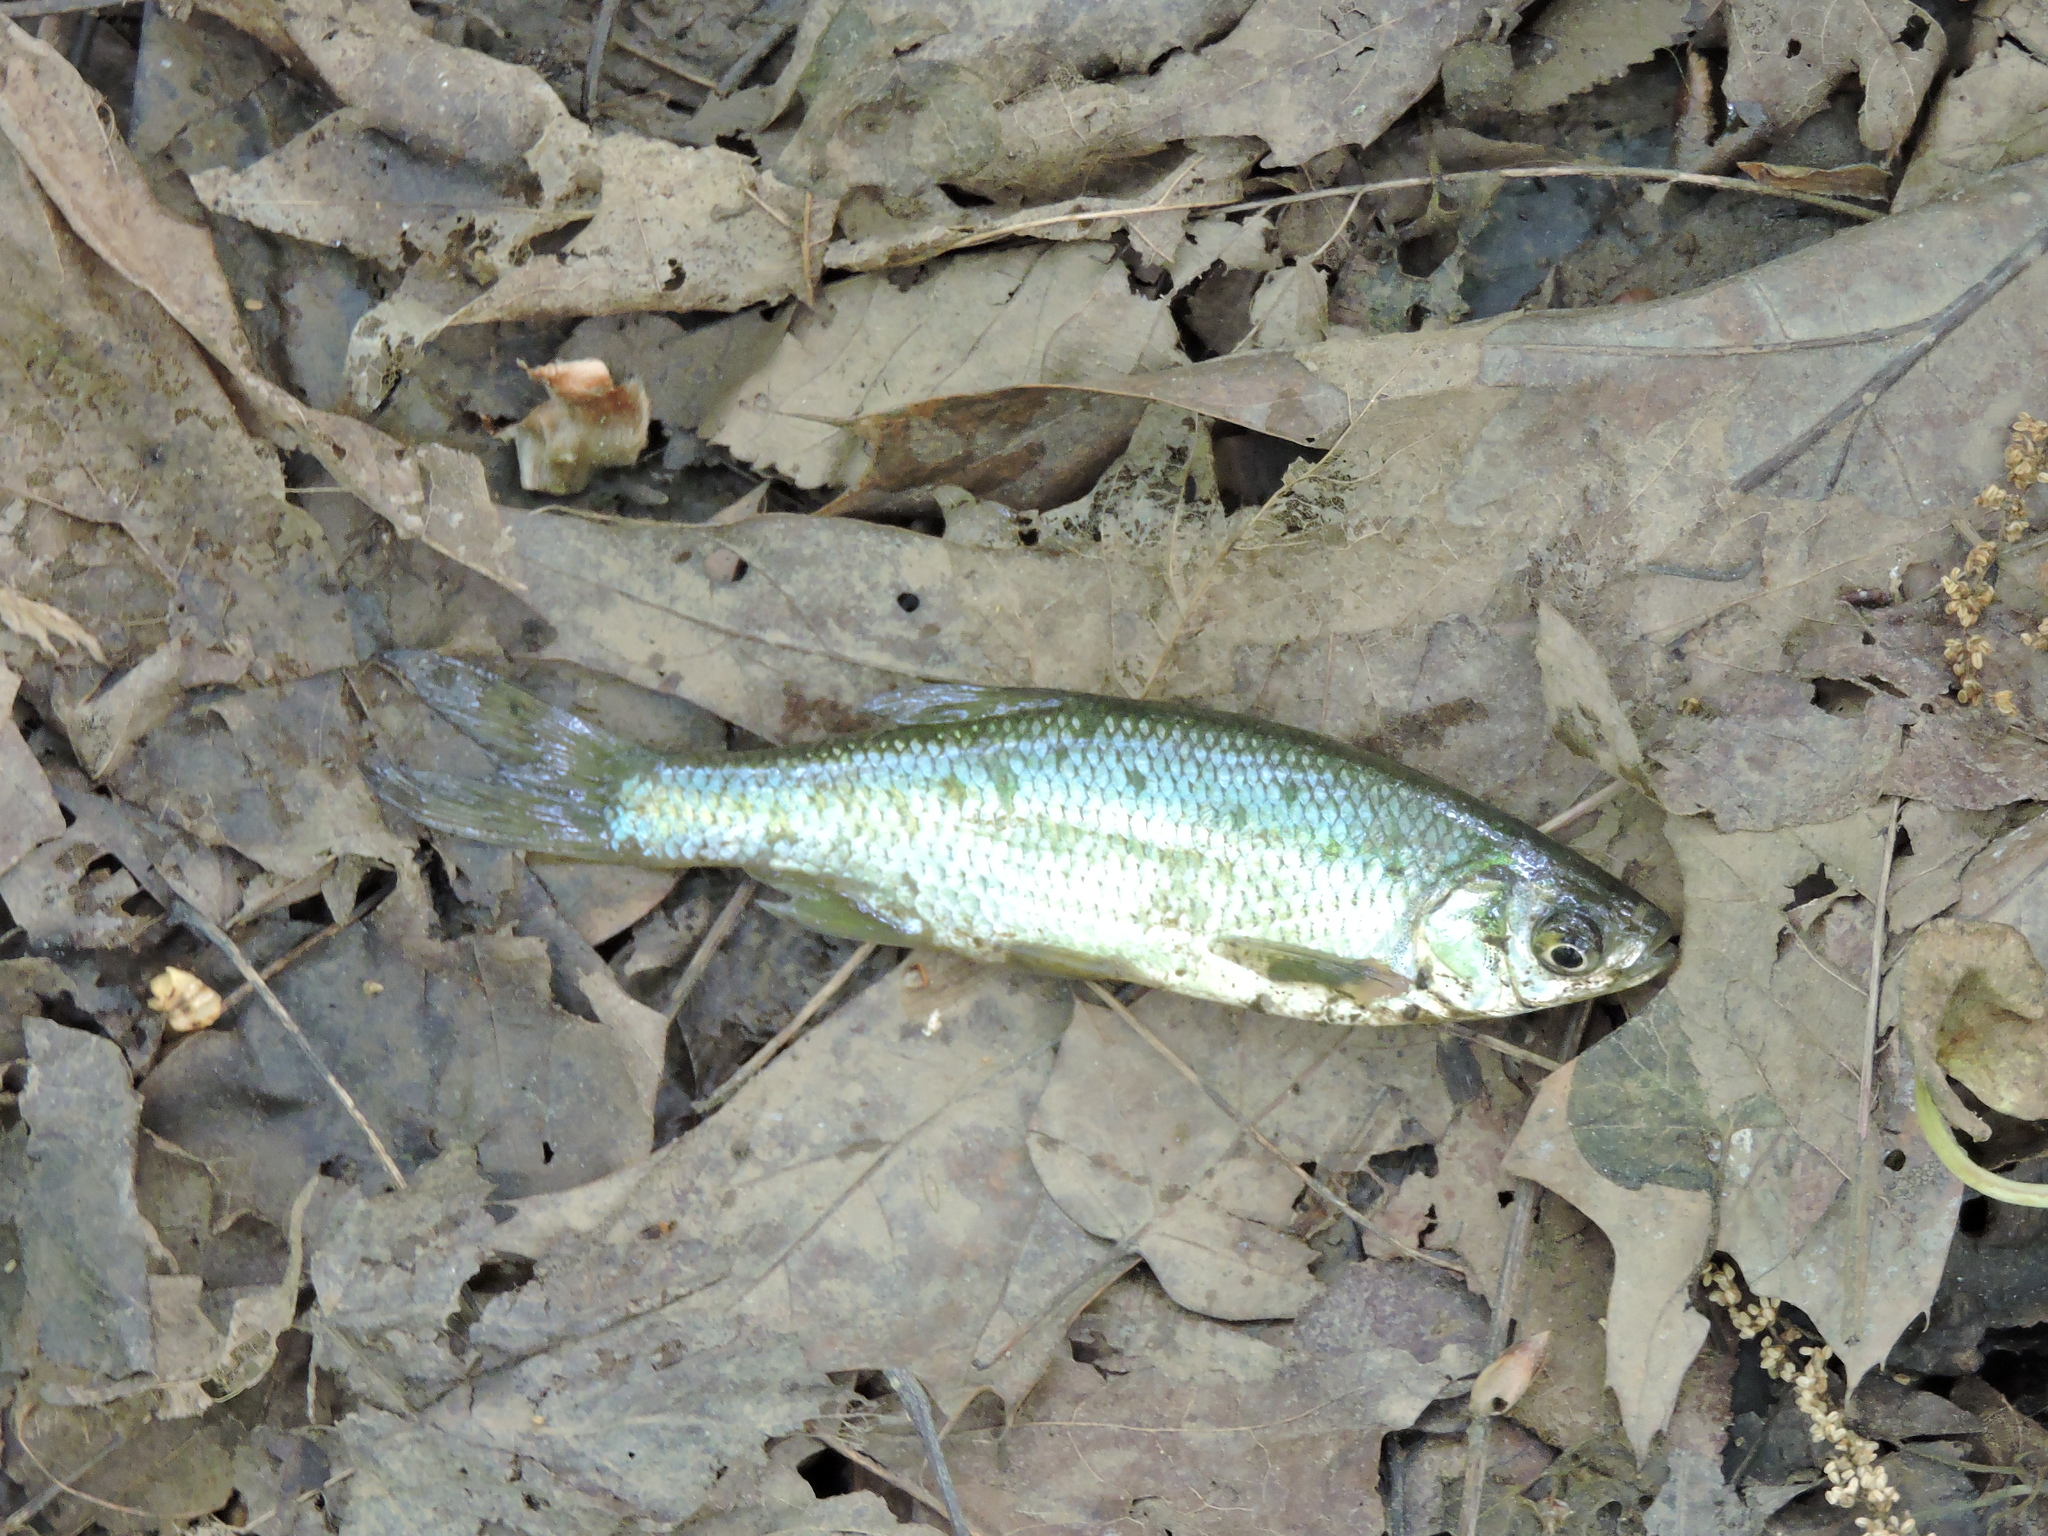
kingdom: Animalia
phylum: Chordata
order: Cypriniformes
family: Cyprinidae
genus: Notemigonus
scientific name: Notemigonus crysoleucas
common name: Golden shiner
